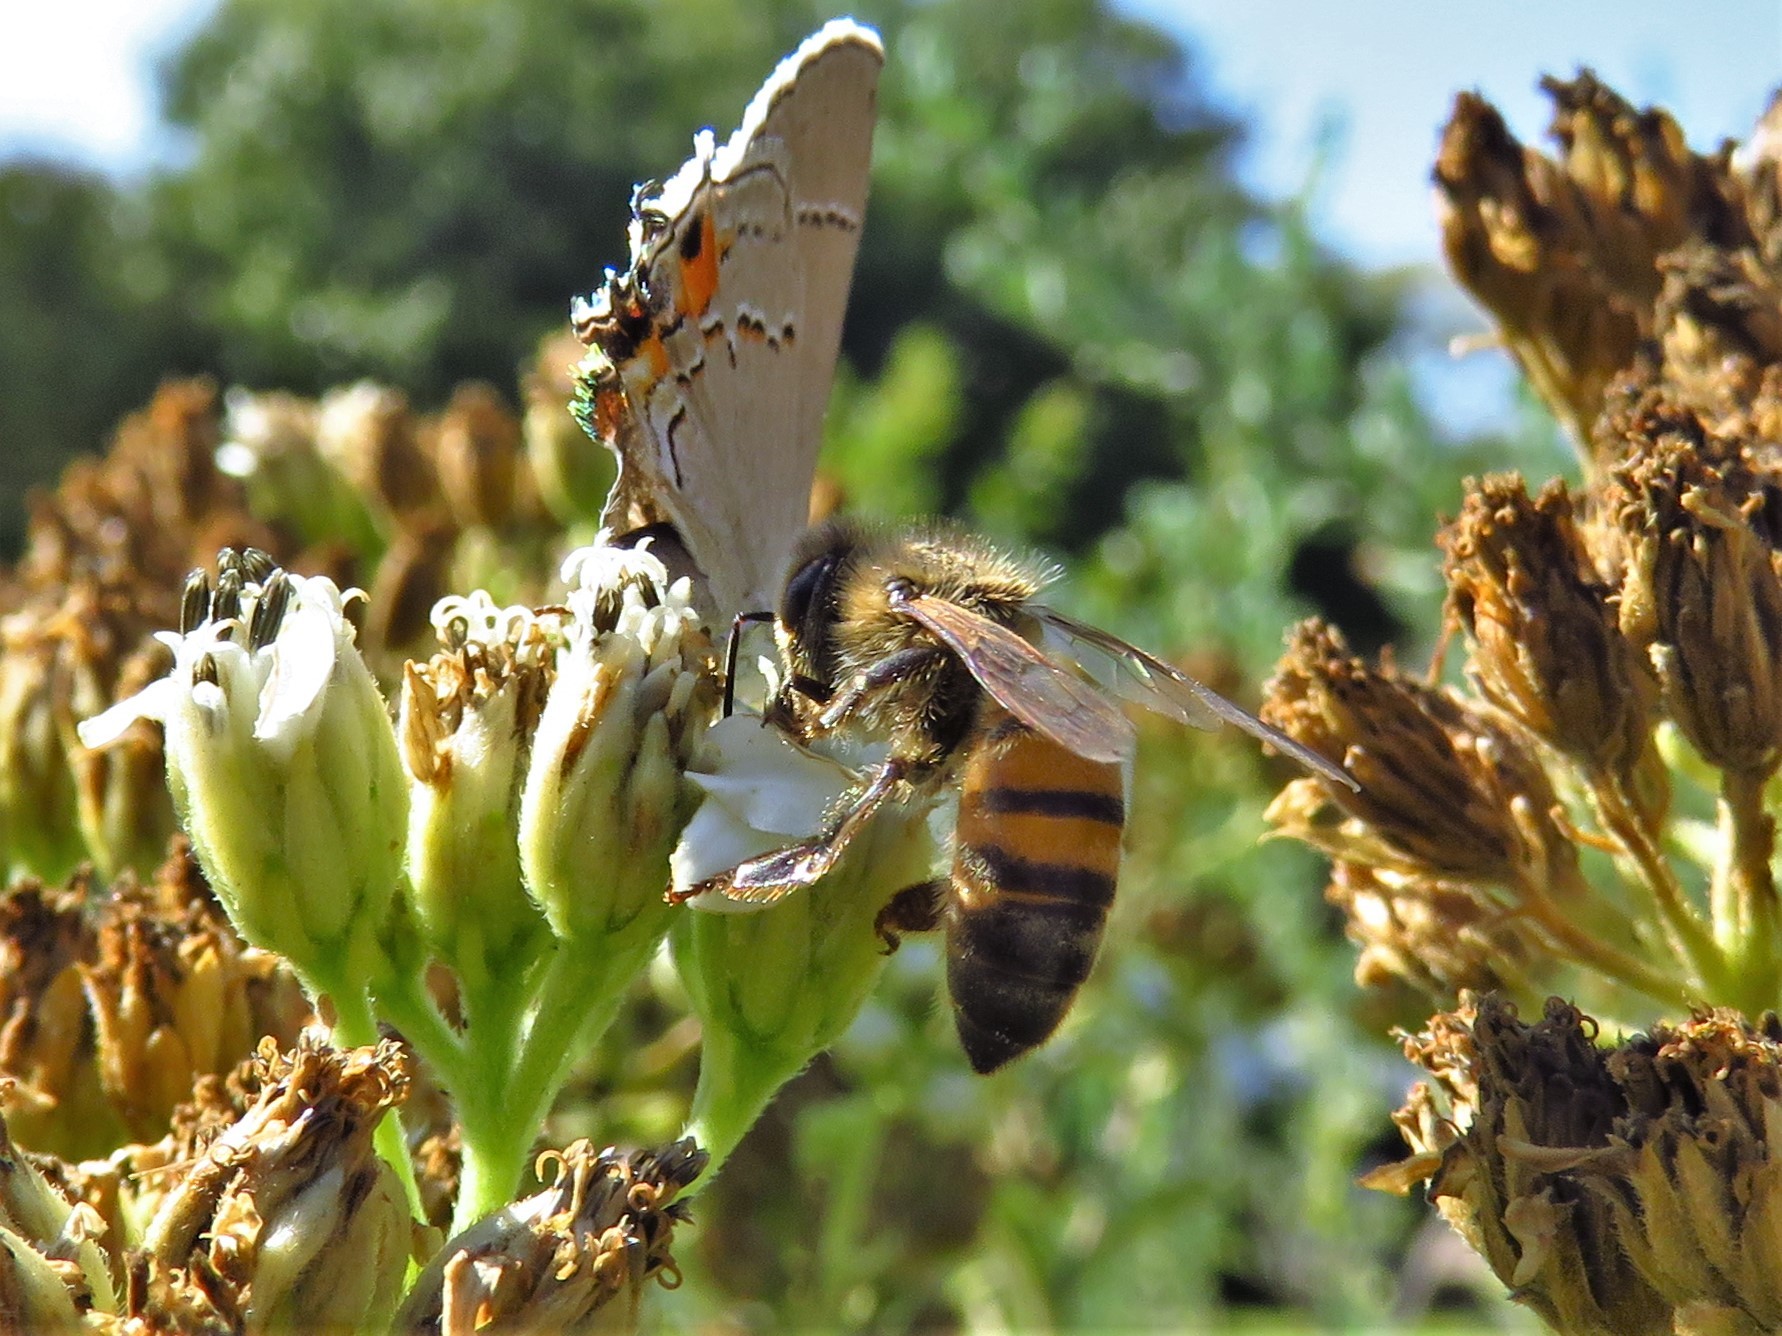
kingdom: Animalia
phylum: Arthropoda
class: Insecta
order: Hymenoptera
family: Apidae
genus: Apis
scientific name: Apis mellifera
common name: Honey bee
